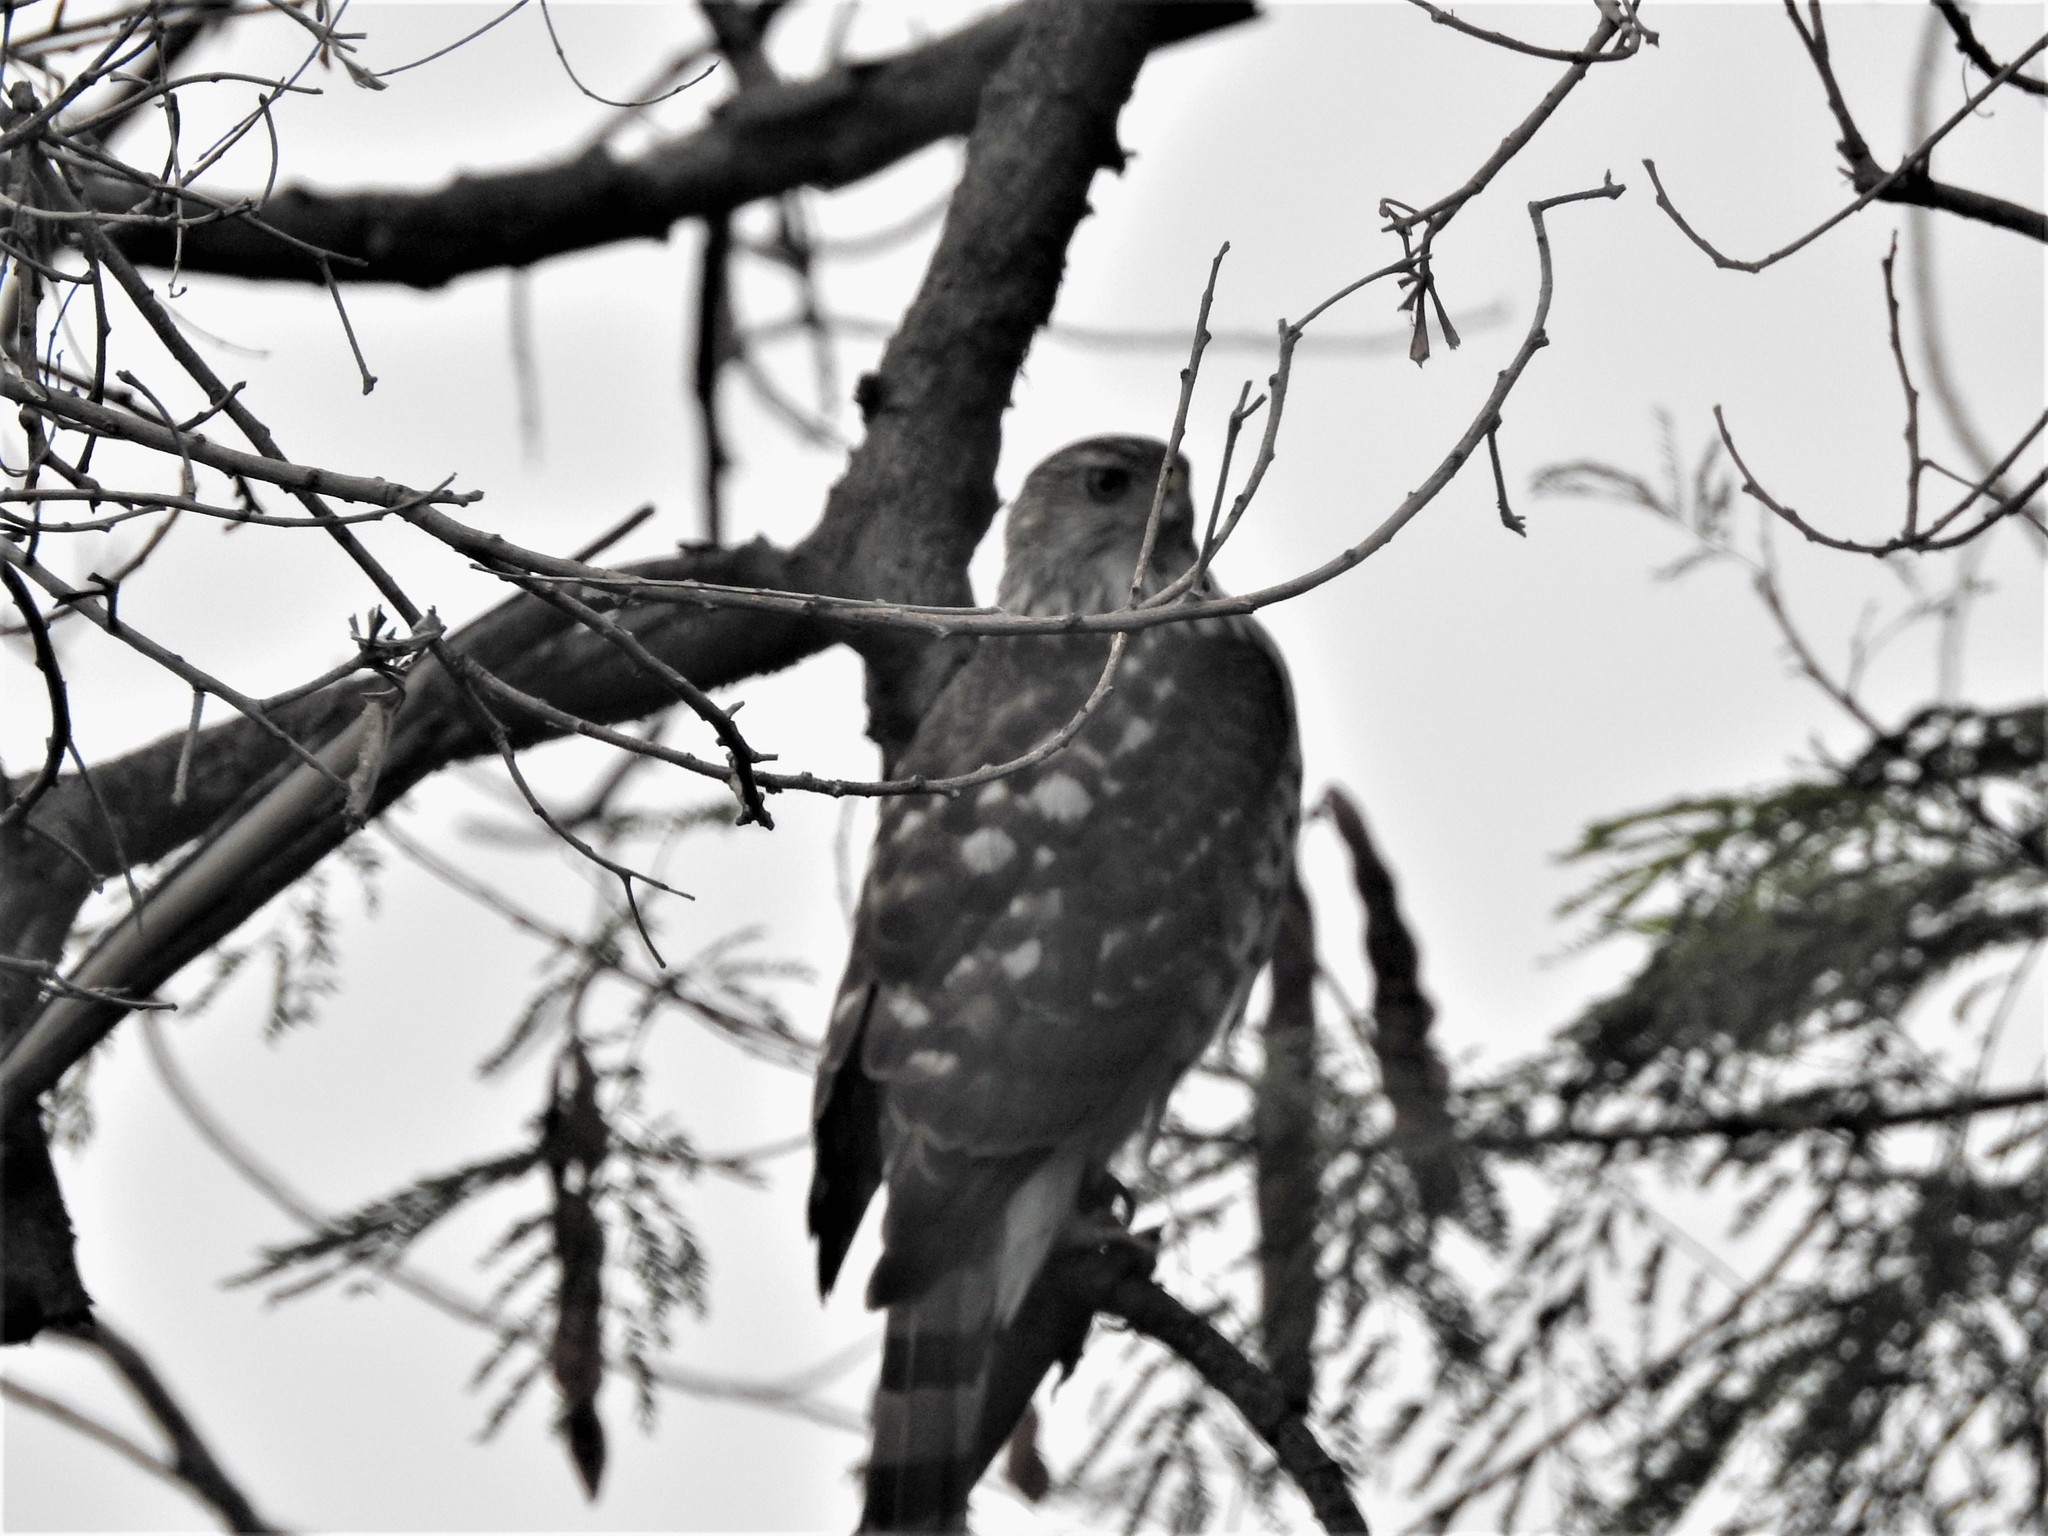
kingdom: Animalia
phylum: Chordata
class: Aves
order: Accipitriformes
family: Accipitridae
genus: Accipiter
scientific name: Accipiter cooperii
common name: Cooper's hawk
